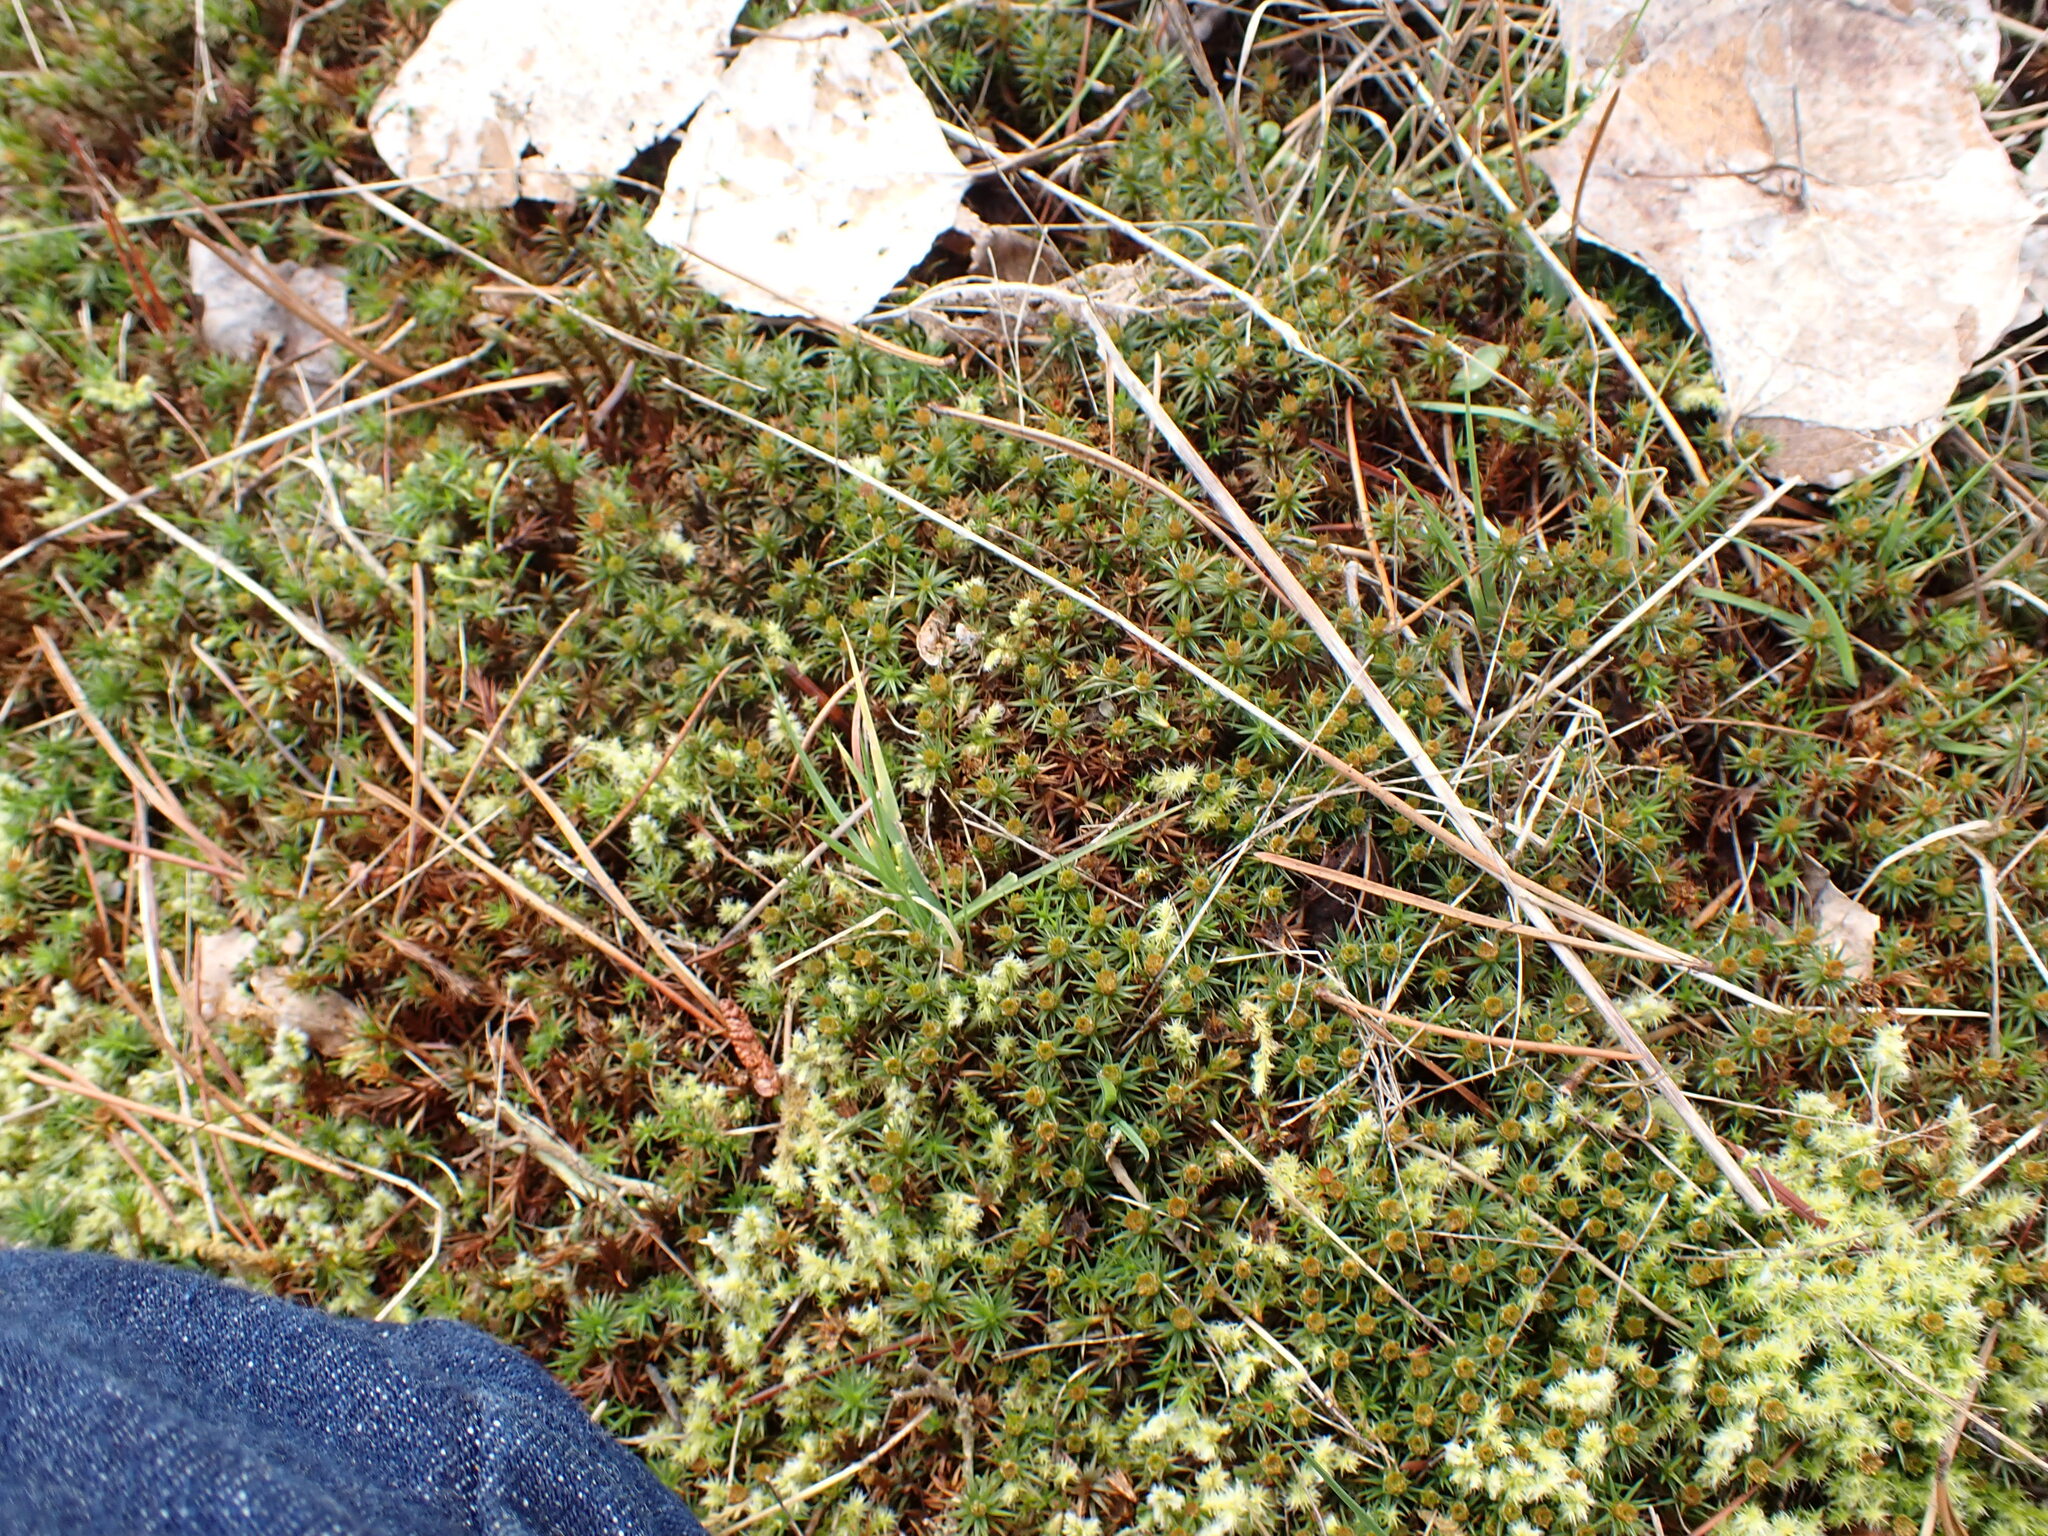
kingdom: Plantae
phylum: Bryophyta
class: Polytrichopsida
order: Polytrichales
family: Polytrichaceae
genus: Polytrichum
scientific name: Polytrichum juniperinum
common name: Juniper haircap moss
